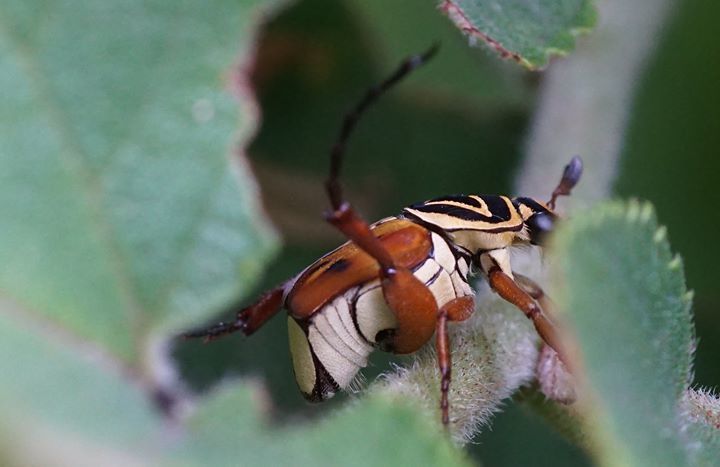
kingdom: Animalia
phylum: Arthropoda
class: Insecta
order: Coleoptera
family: Scarabaeidae
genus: Trigonopeltastes
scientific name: Trigonopeltastes delta
